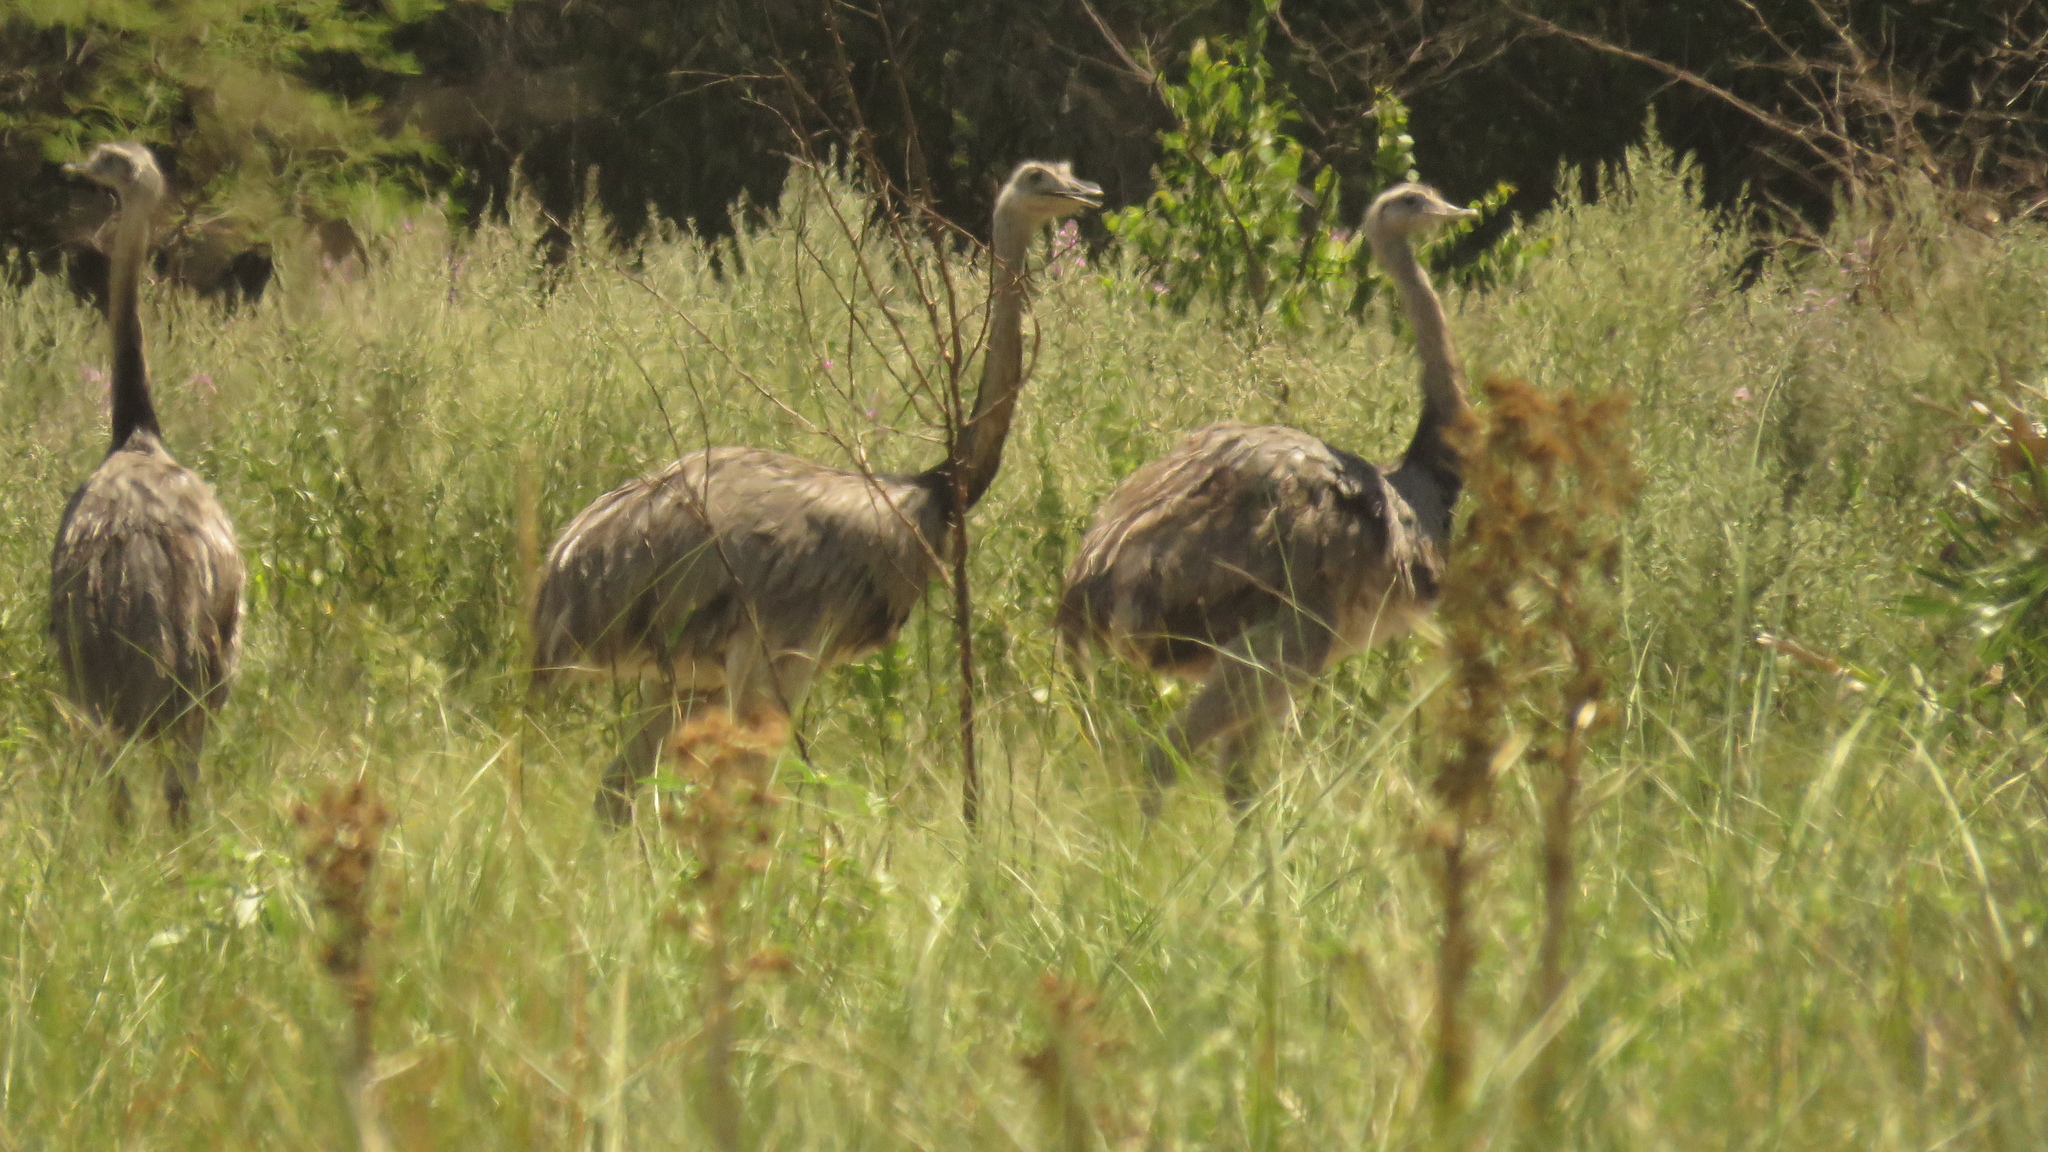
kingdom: Animalia
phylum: Chordata
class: Aves
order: Rheiformes
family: Rheidae
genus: Rhea
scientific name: Rhea americana
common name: Greater rhea
